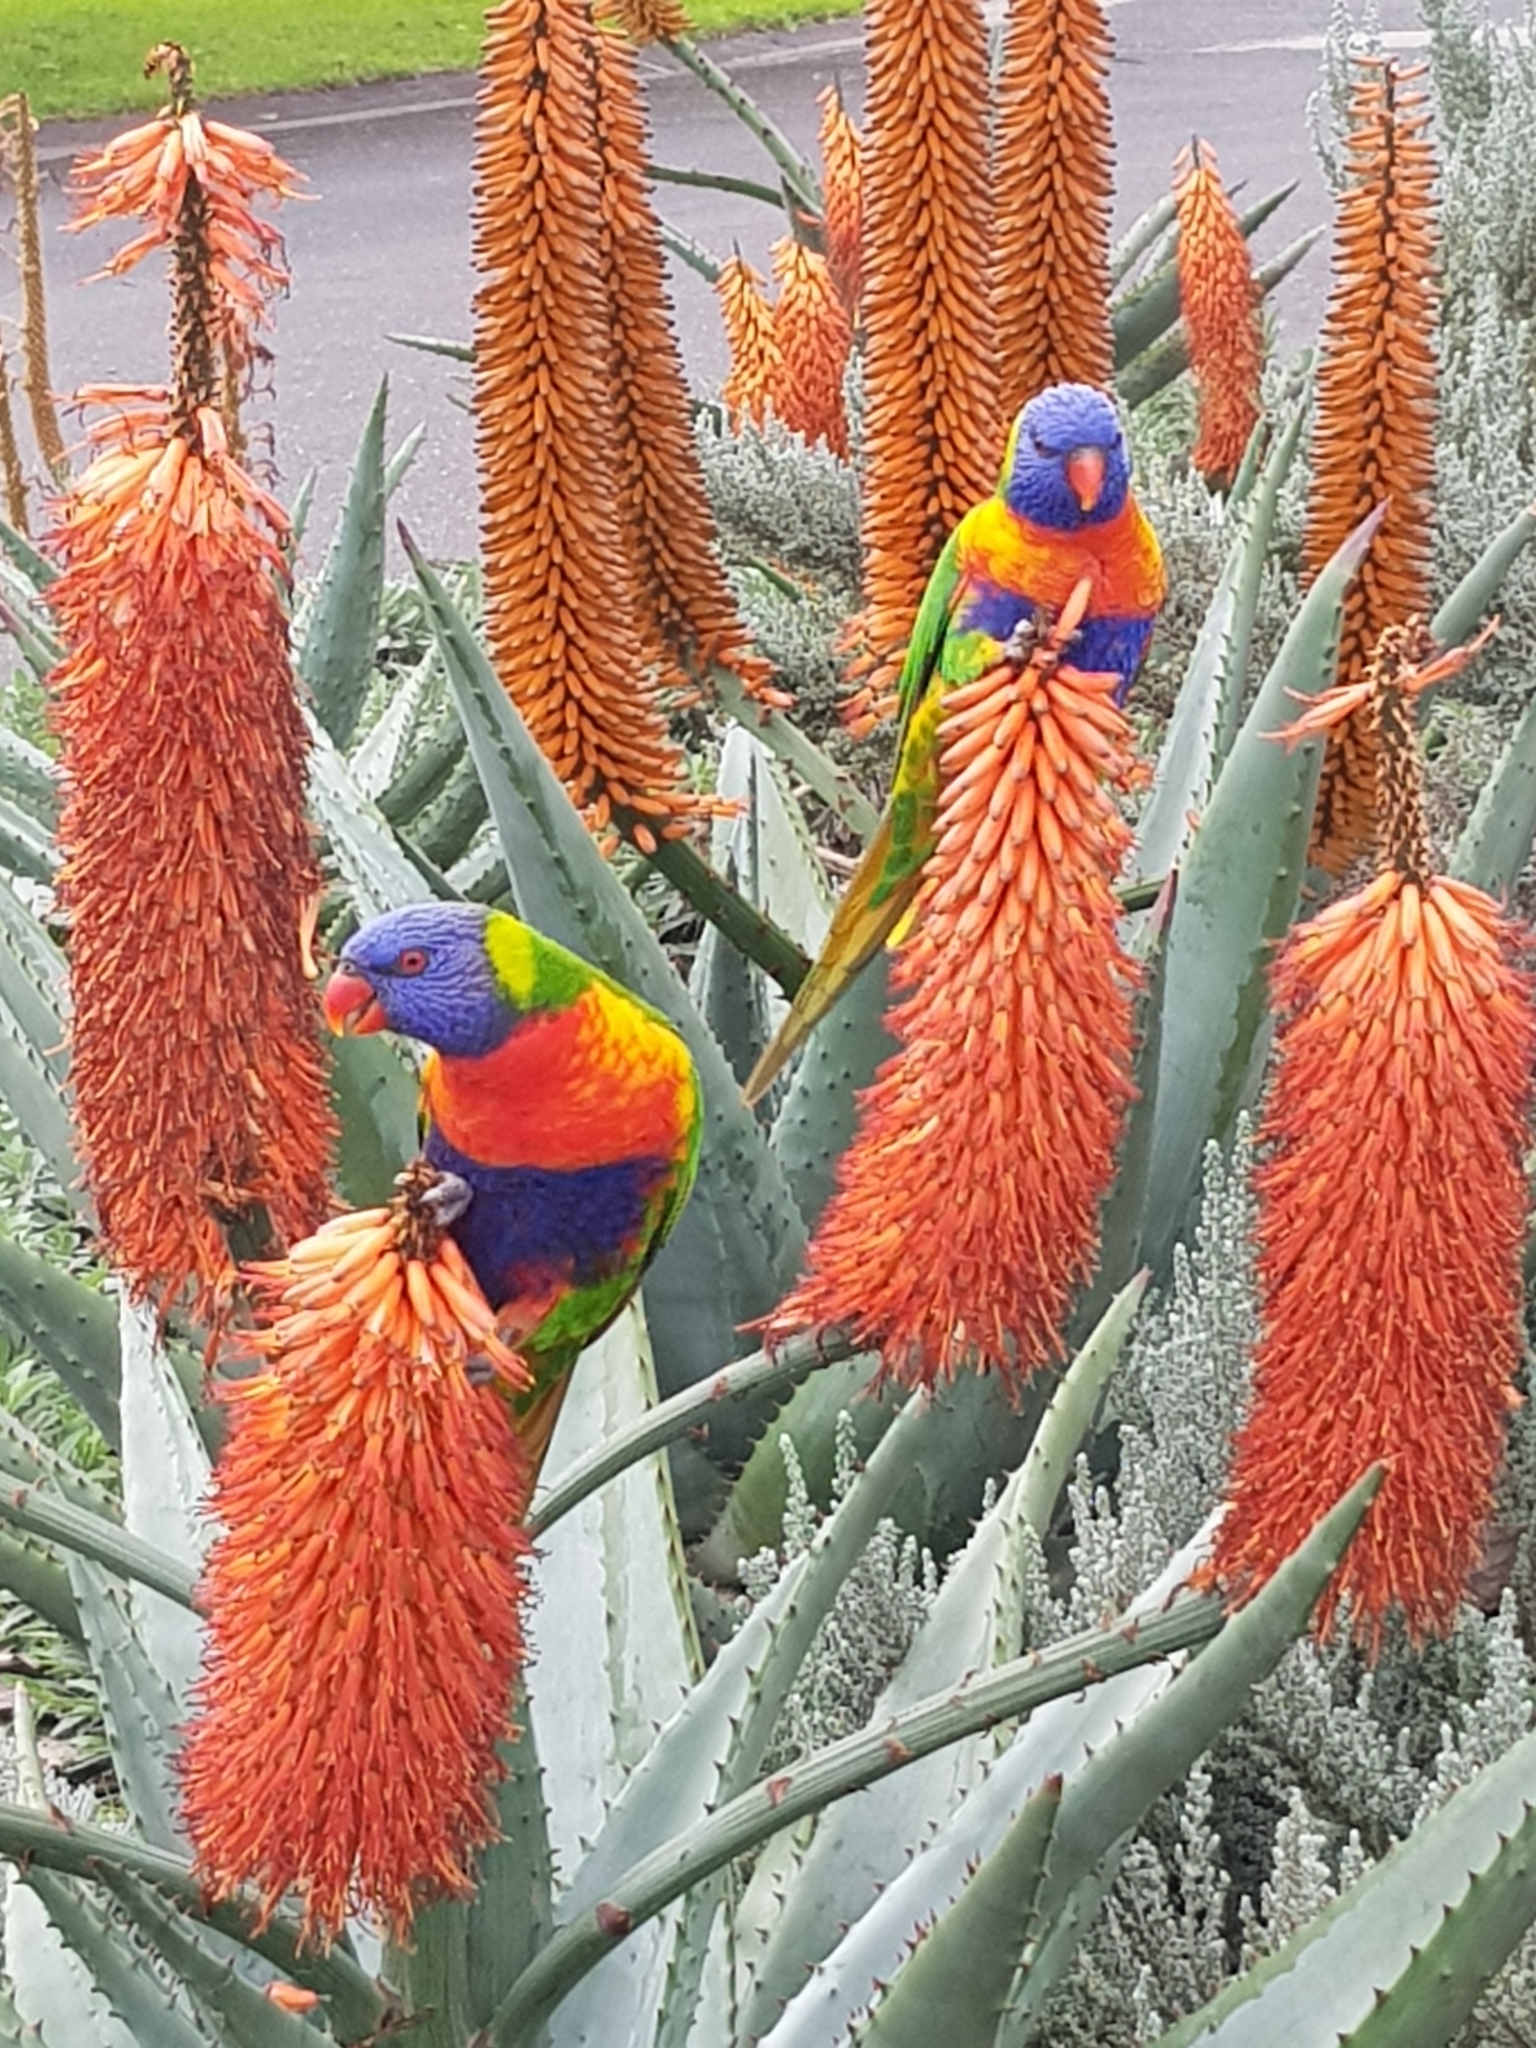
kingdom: Animalia
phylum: Chordata
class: Aves
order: Psittaciformes
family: Psittacidae
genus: Trichoglossus
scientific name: Trichoglossus haematodus
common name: Coconut lorikeet
